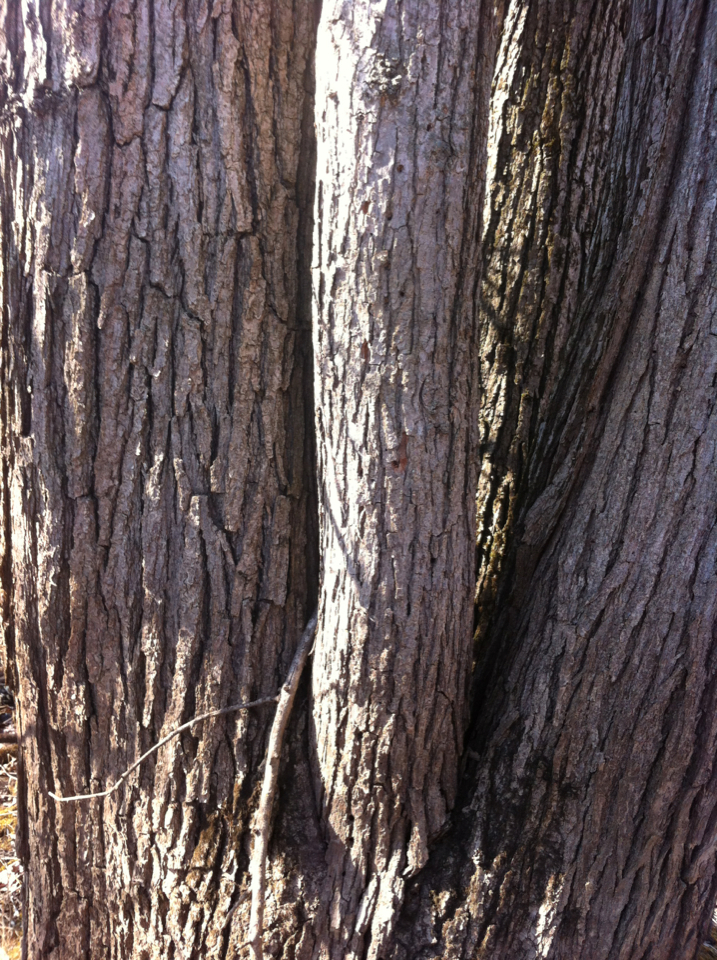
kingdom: Plantae
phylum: Tracheophyta
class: Magnoliopsida
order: Fagales
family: Fagaceae
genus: Quercus
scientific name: Quercus bicolor
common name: Swamp white oak
